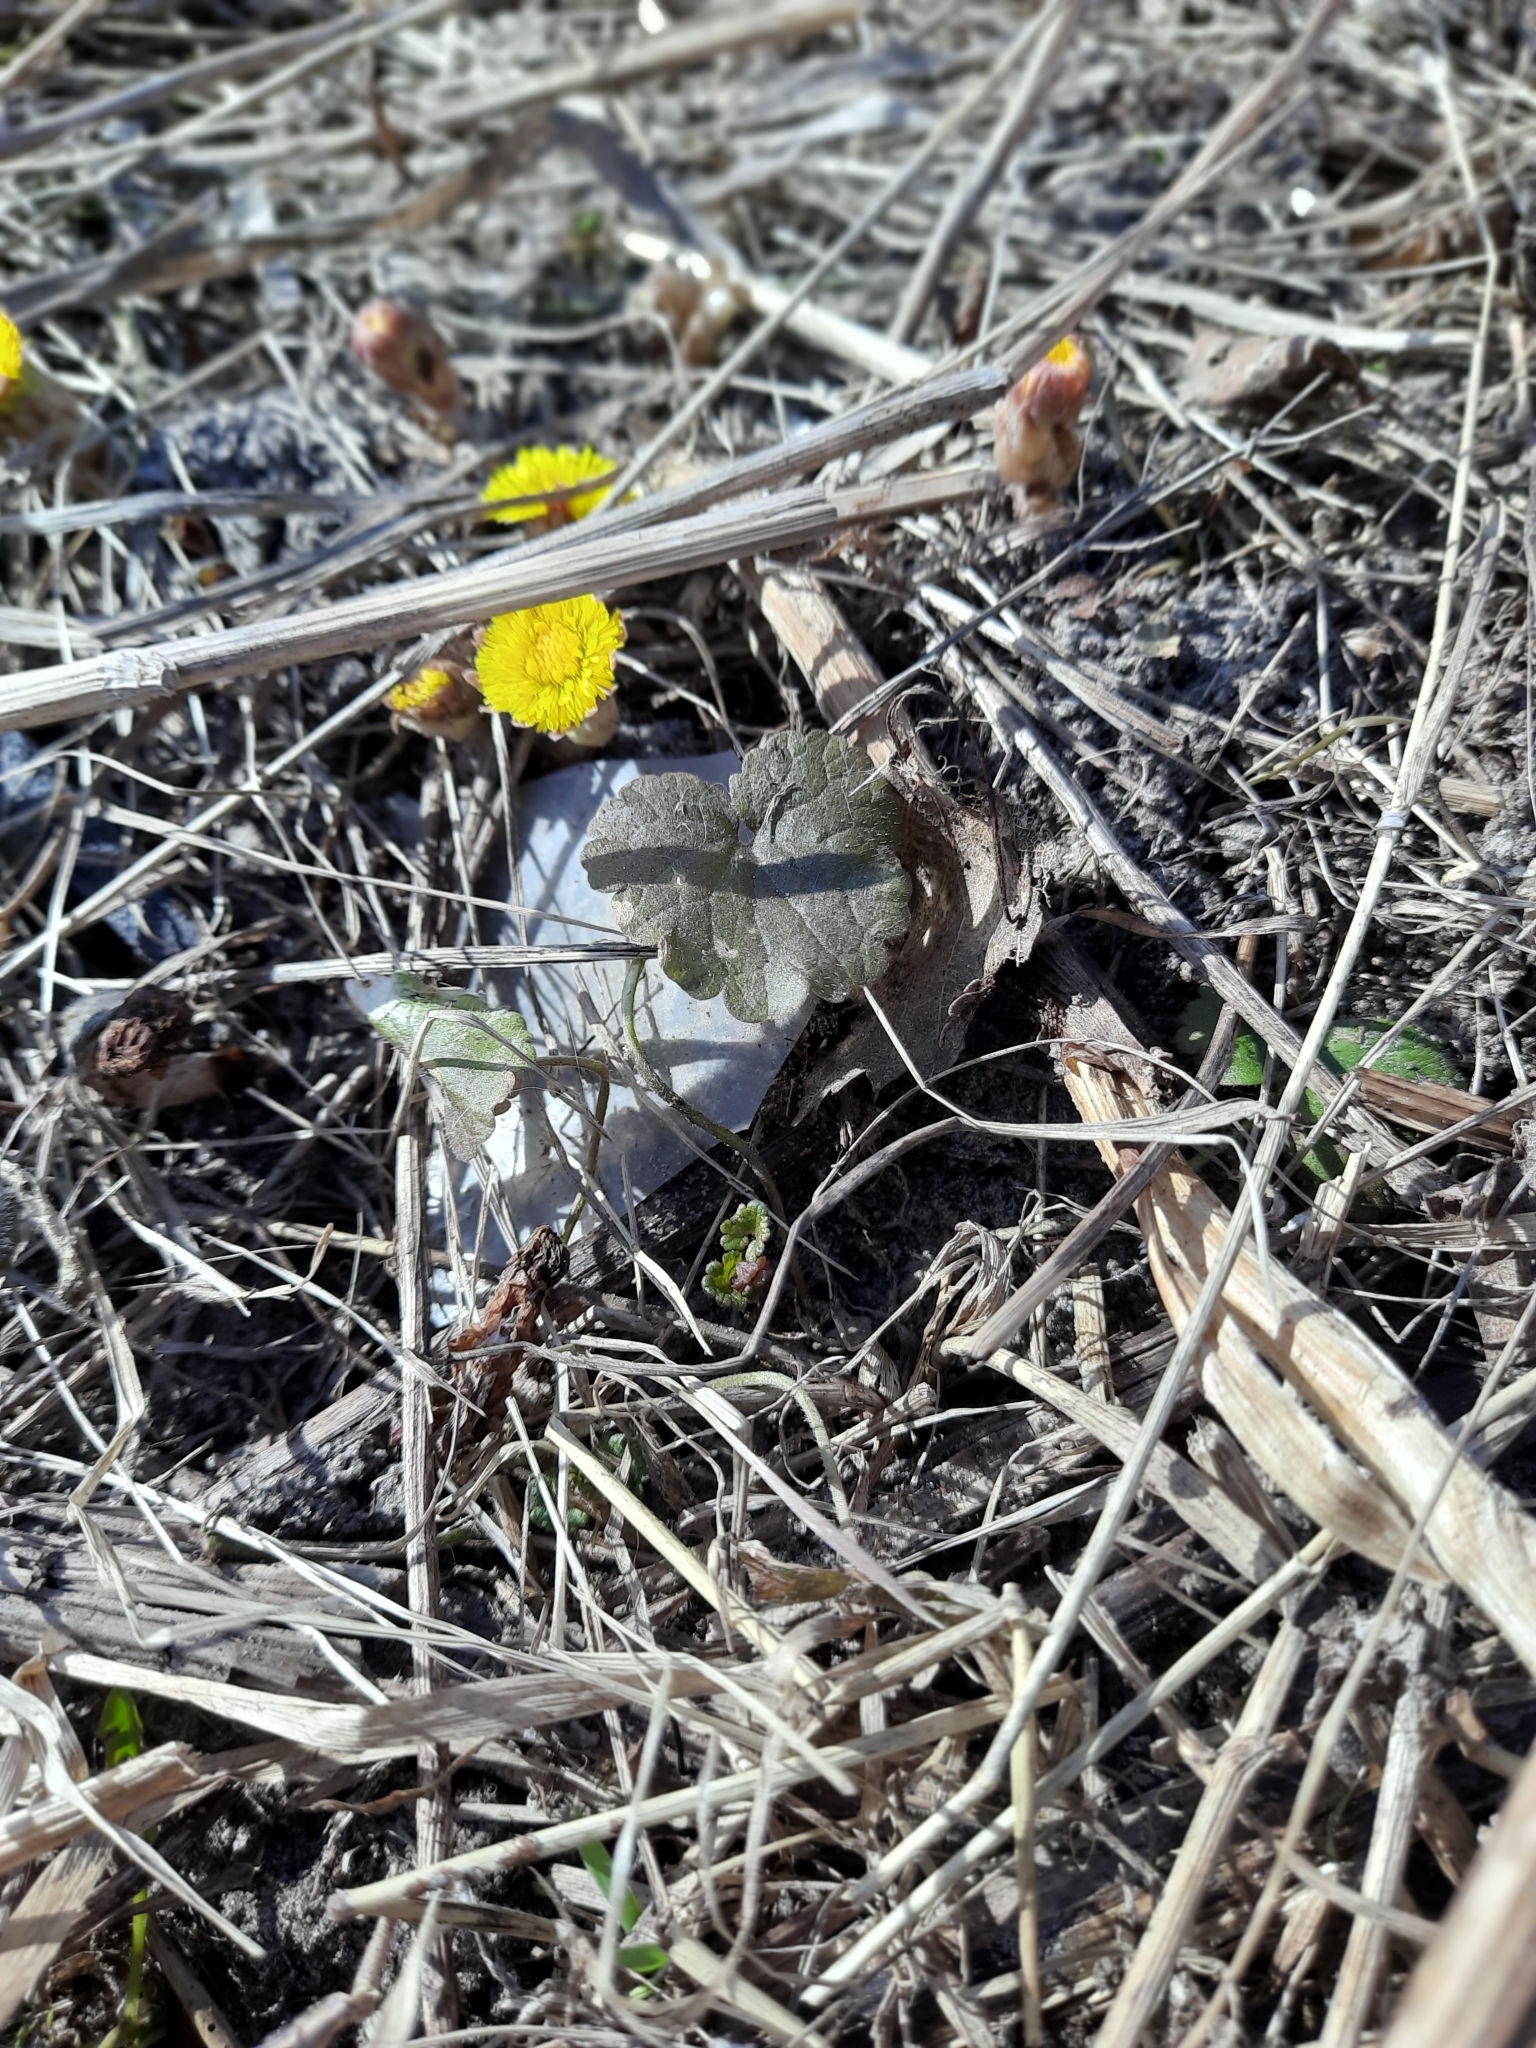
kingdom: Plantae
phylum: Tracheophyta
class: Magnoliopsida
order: Asterales
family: Asteraceae
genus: Tussilago
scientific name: Tussilago farfara
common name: Coltsfoot
